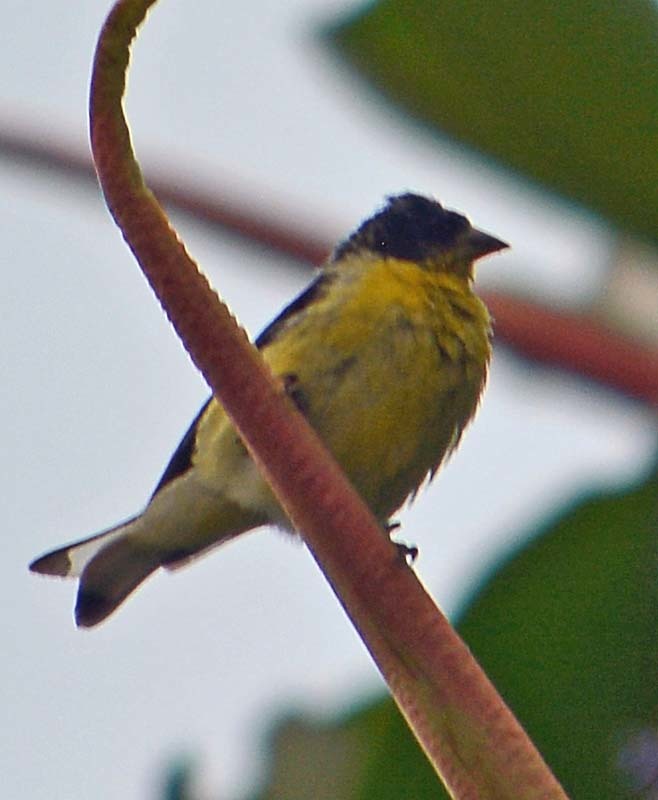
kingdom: Animalia
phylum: Chordata
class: Aves
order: Passeriformes
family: Fringillidae
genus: Spinus
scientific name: Spinus psaltria
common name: Lesser goldfinch
